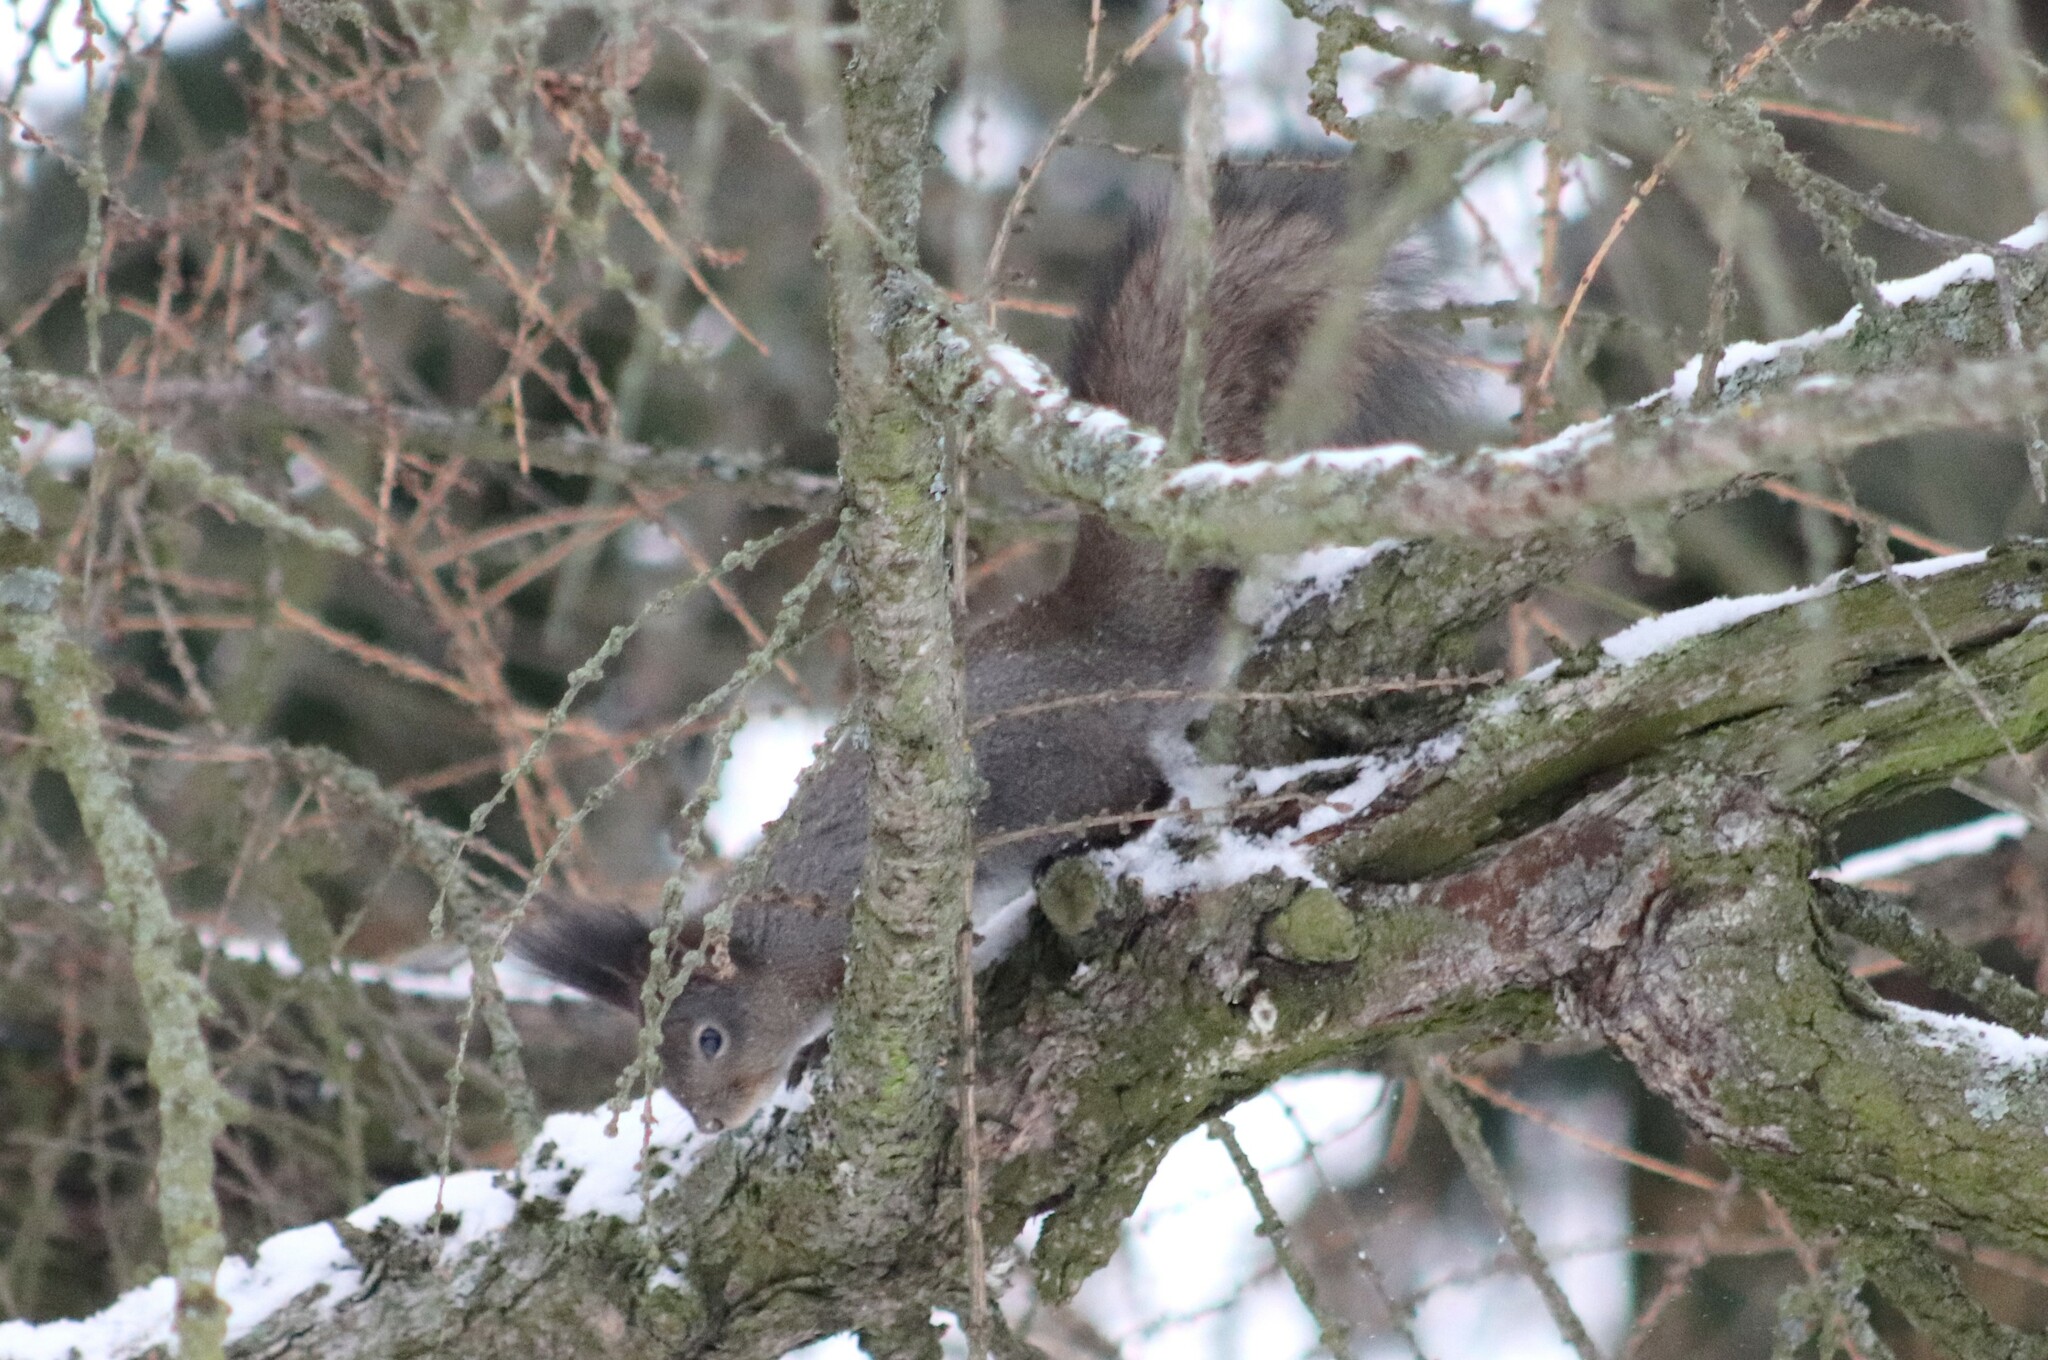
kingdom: Animalia
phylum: Chordata
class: Mammalia
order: Rodentia
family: Sciuridae
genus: Sciurus
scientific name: Sciurus vulgaris
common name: Eurasian red squirrel
